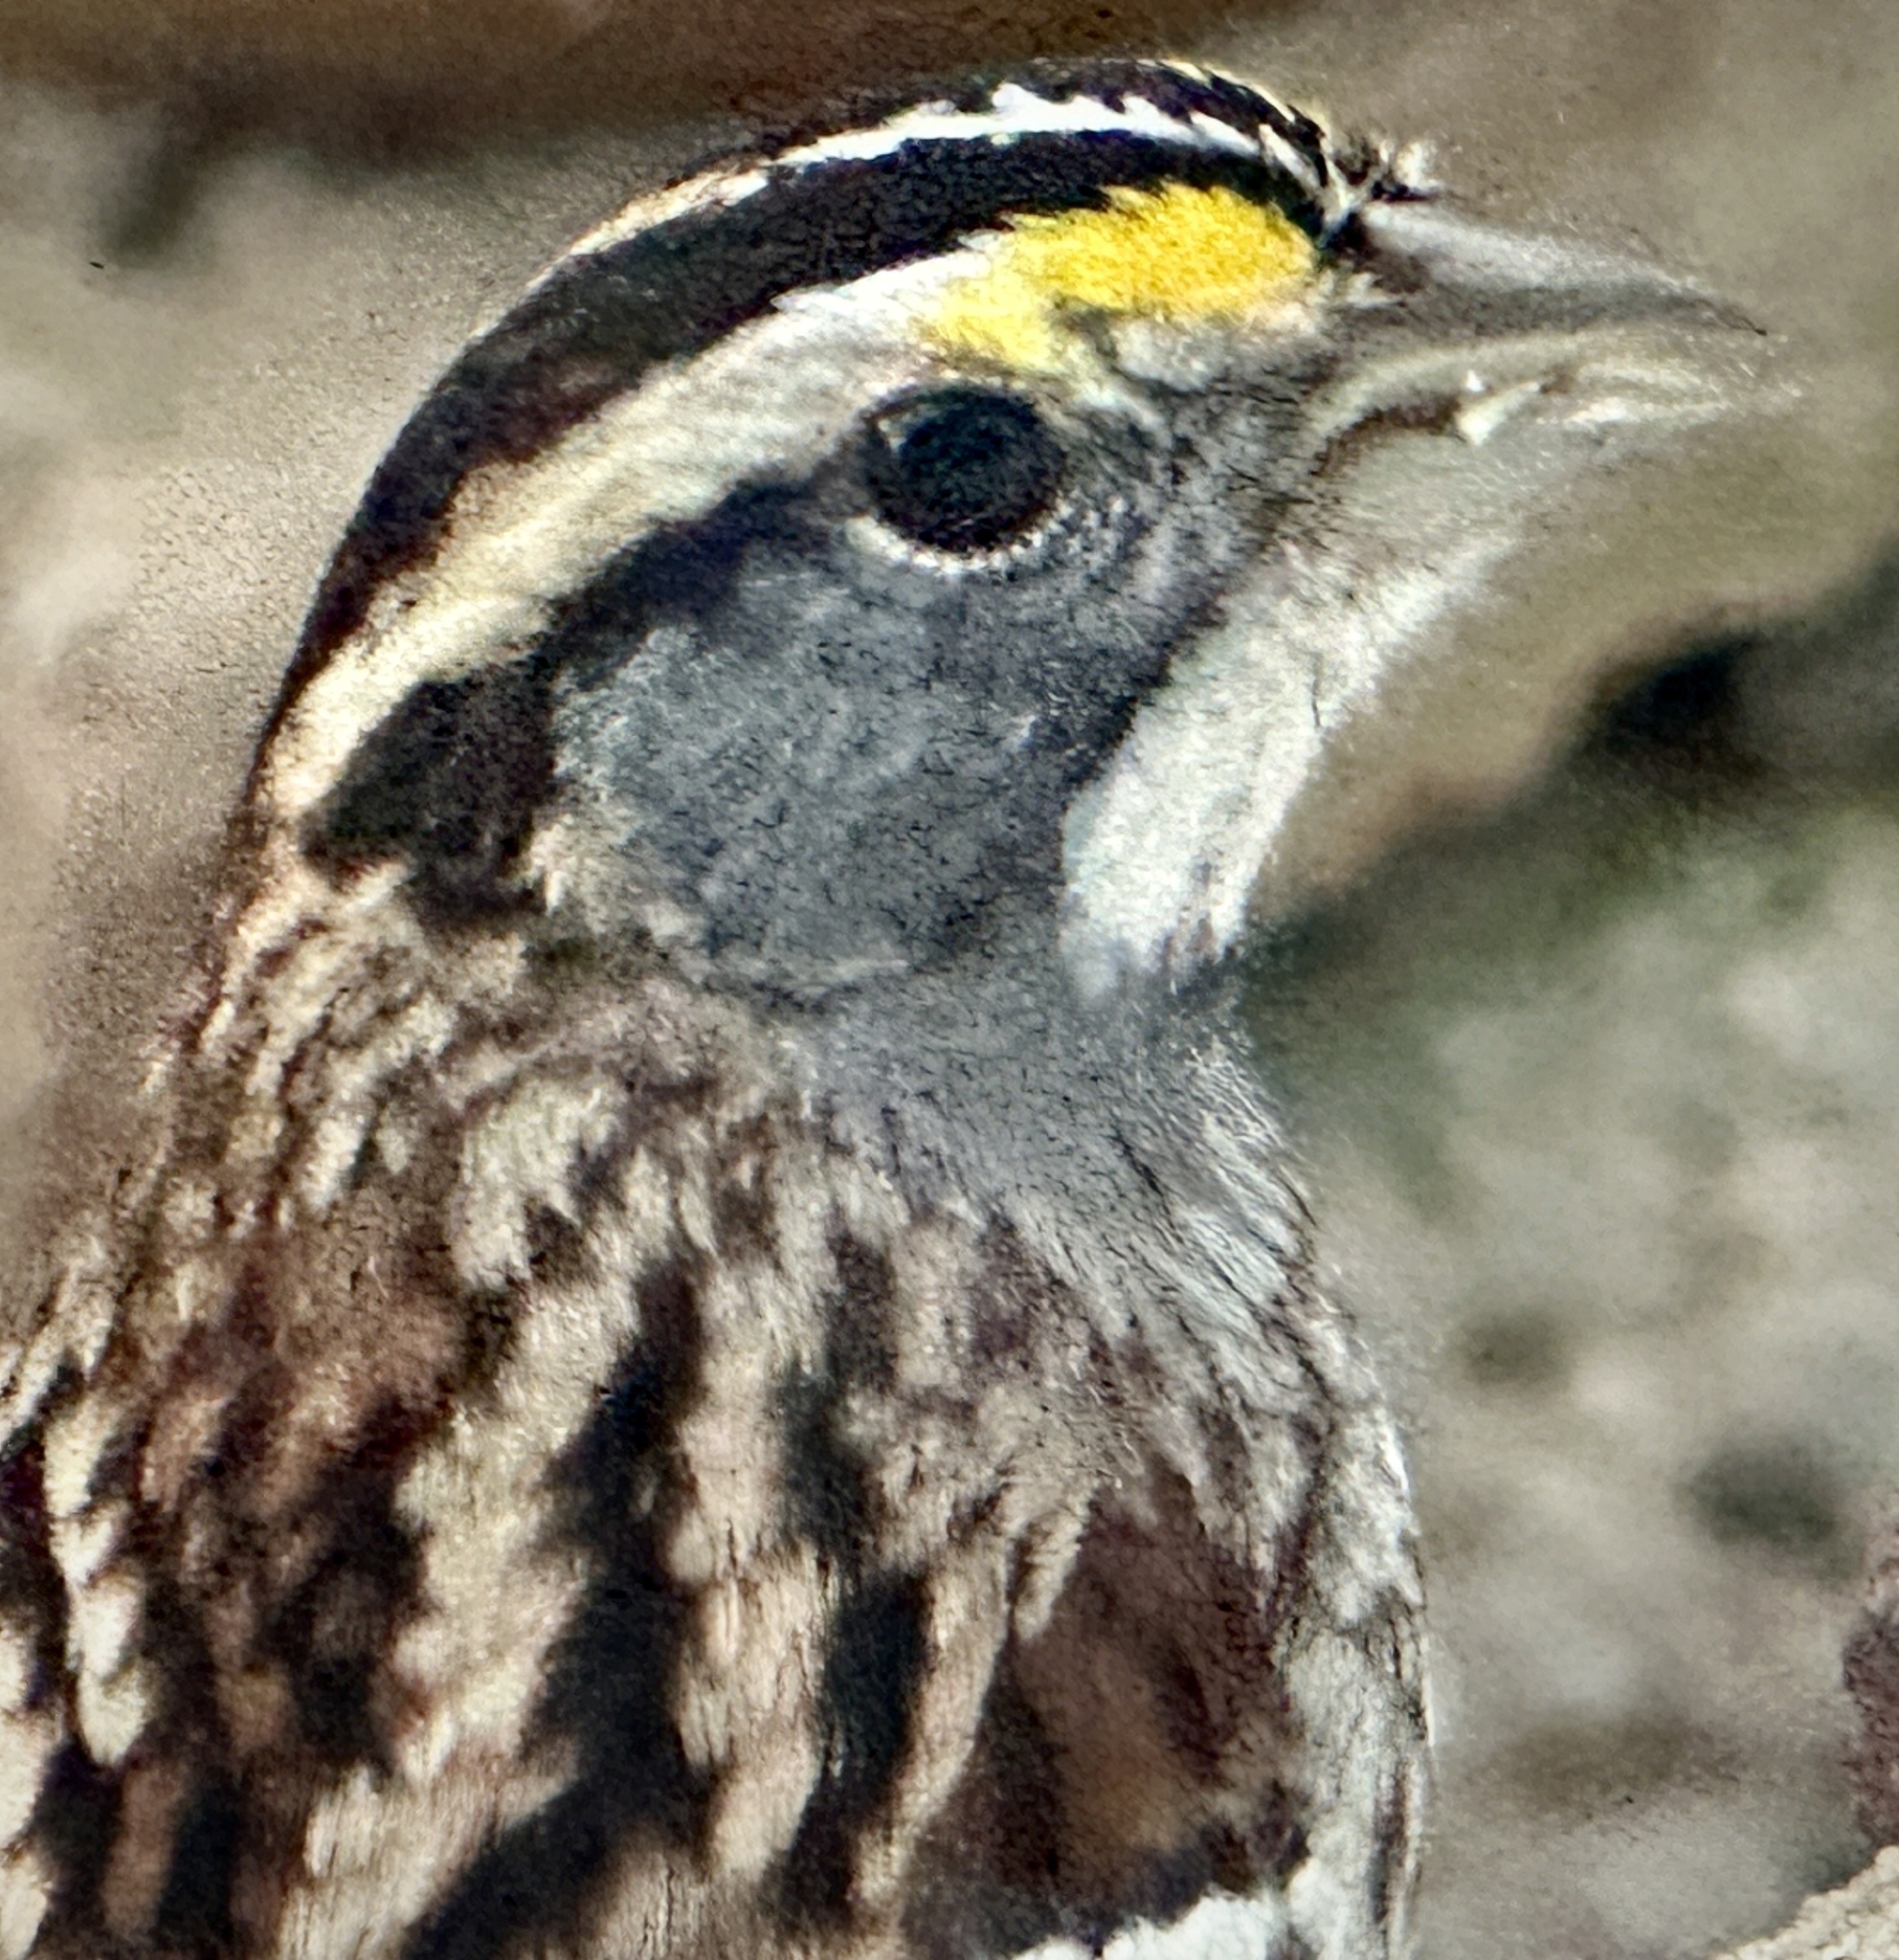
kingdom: Animalia
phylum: Chordata
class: Aves
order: Passeriformes
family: Passerellidae
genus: Zonotrichia
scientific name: Zonotrichia albicollis
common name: White-throated sparrow
